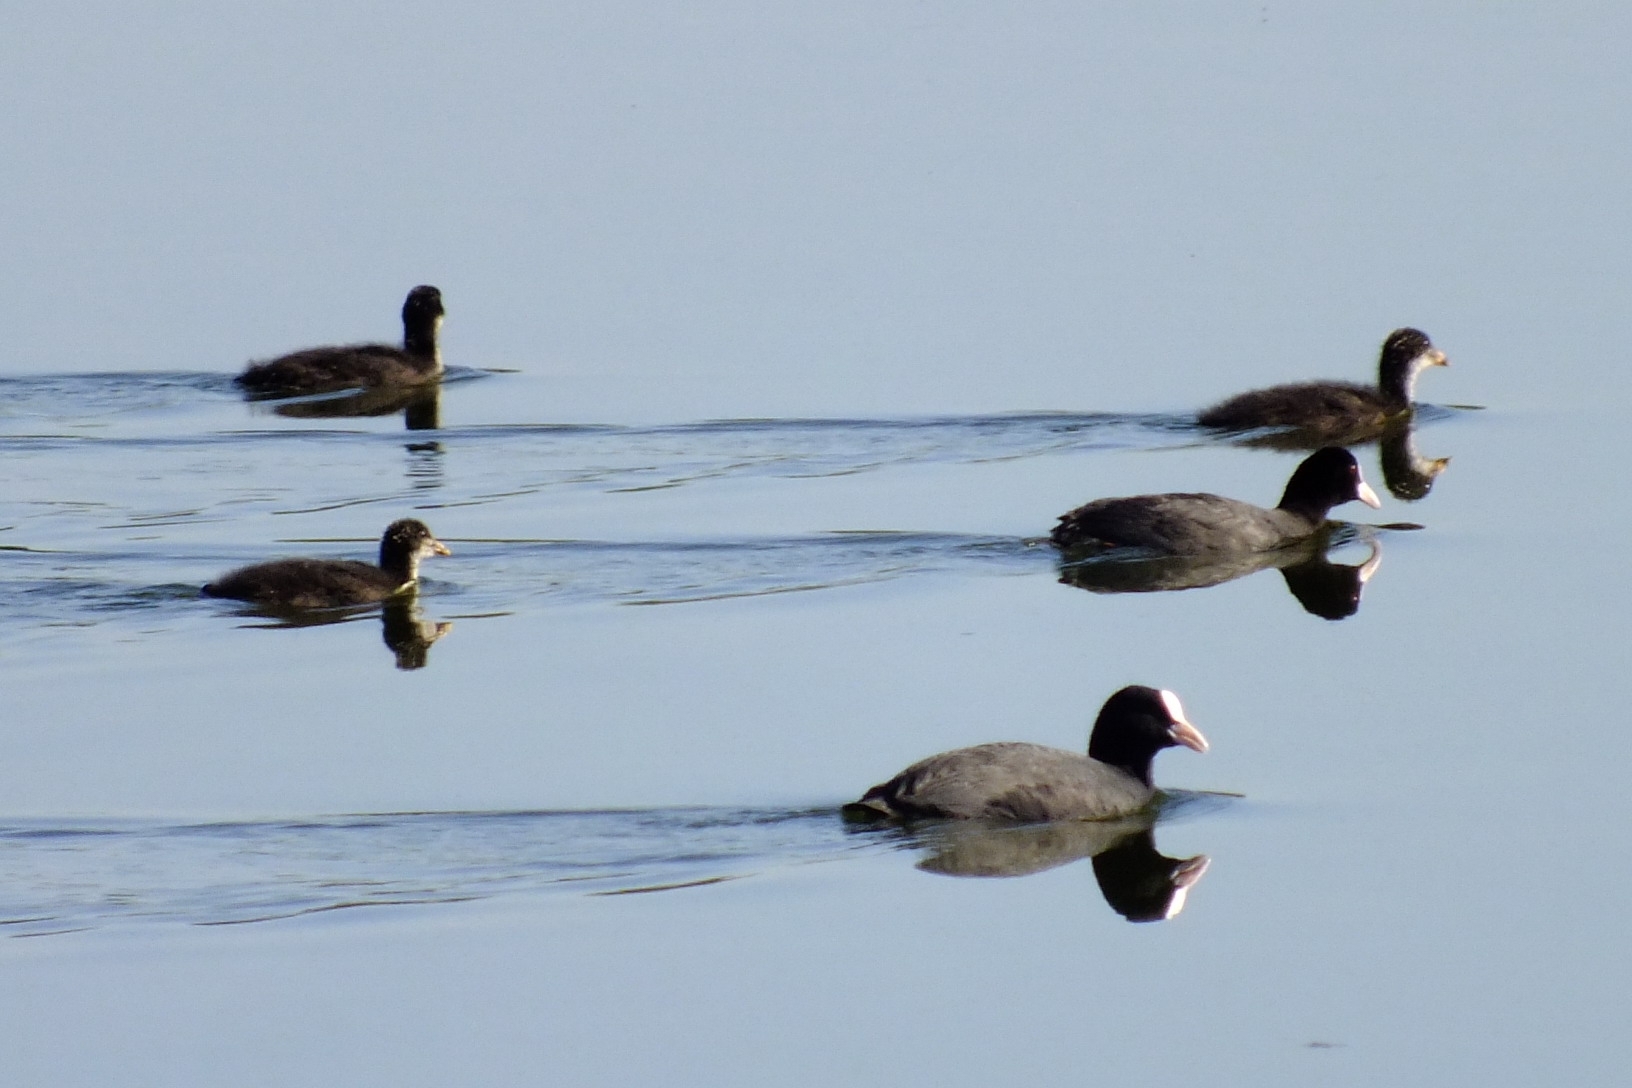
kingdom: Animalia
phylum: Chordata
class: Aves
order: Gruiformes
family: Rallidae
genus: Fulica
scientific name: Fulica atra
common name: Eurasian coot
